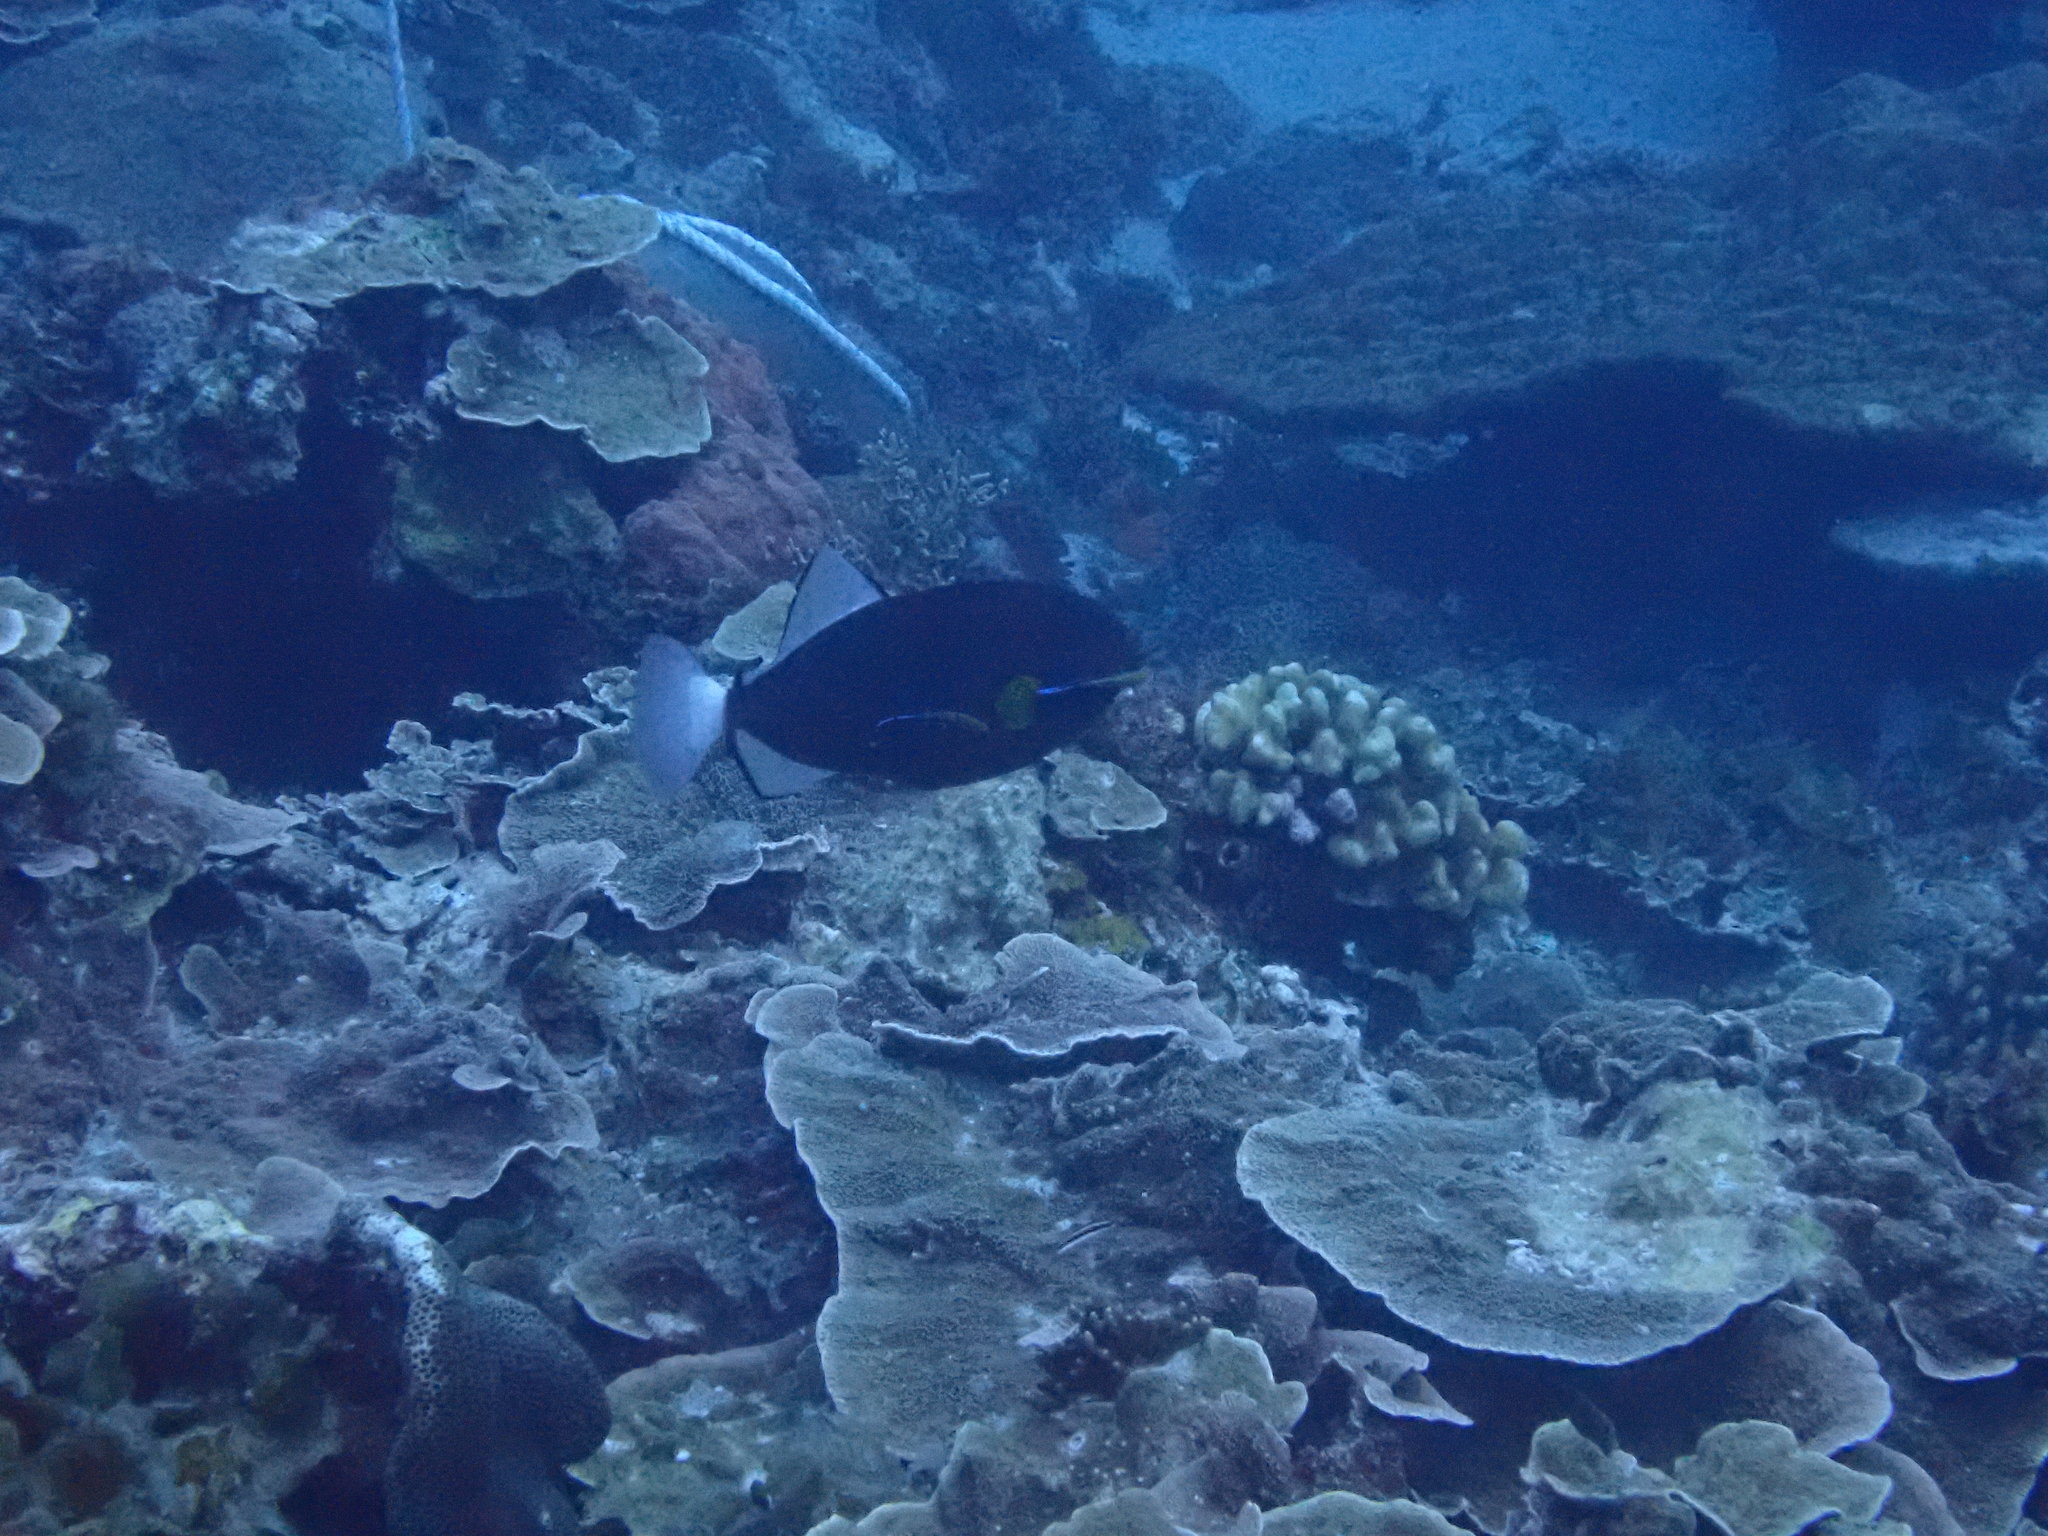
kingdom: Animalia
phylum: Chordata
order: Tetraodontiformes
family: Balistidae
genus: Melichthys
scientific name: Melichthys vidua
